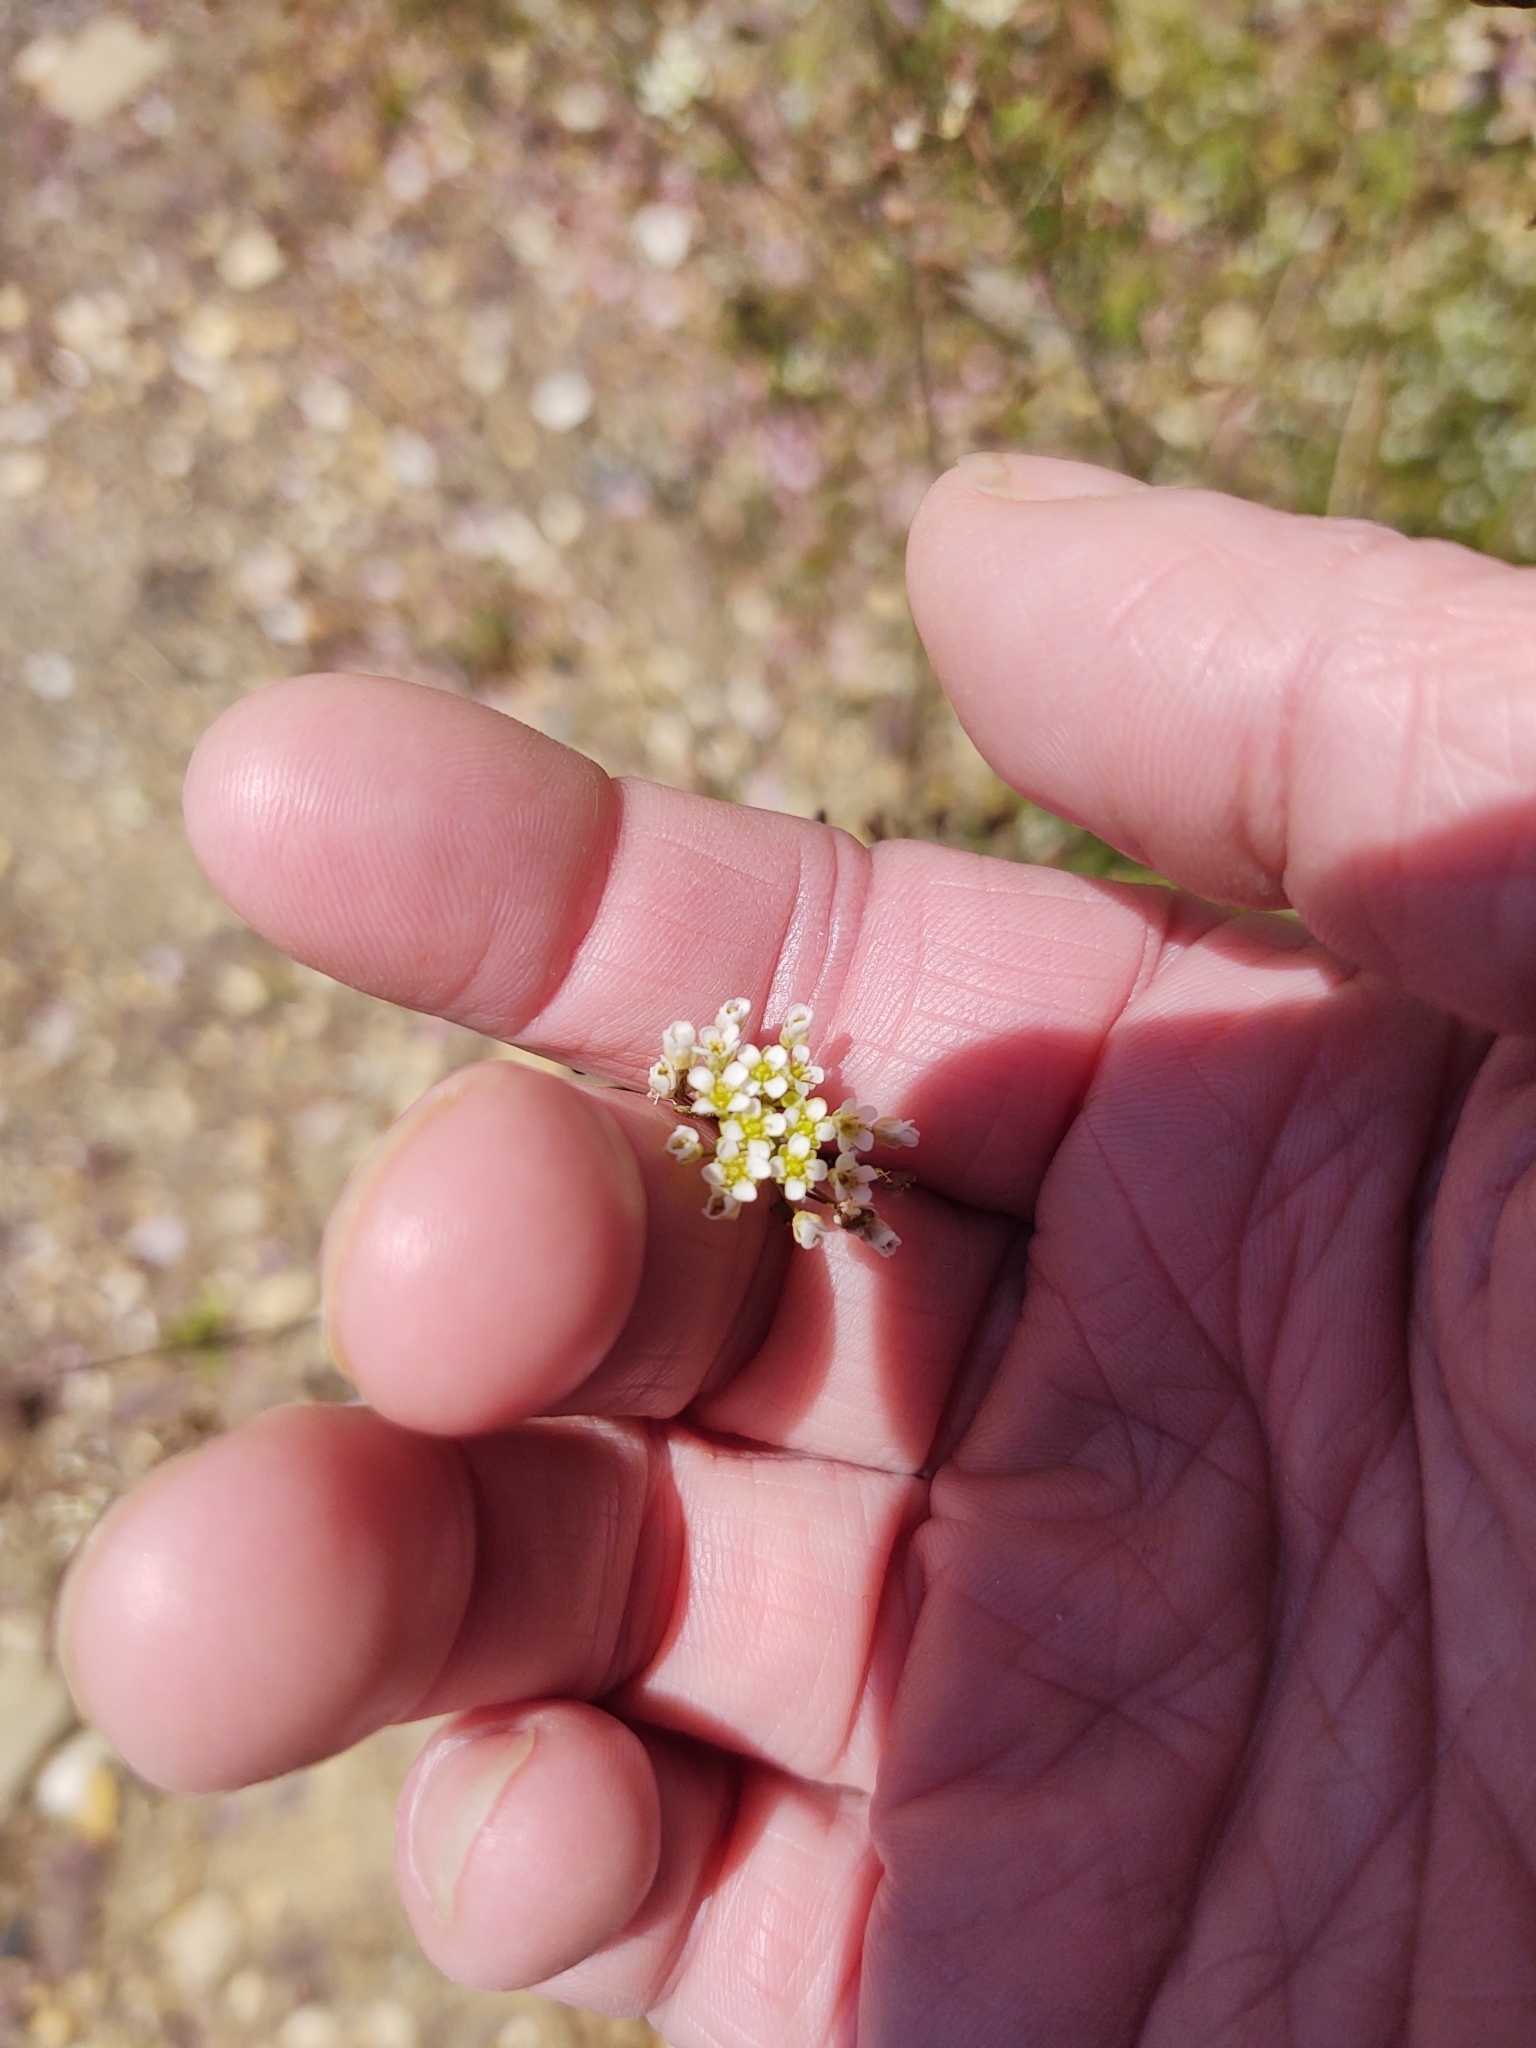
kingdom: Plantae
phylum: Tracheophyta
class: Magnoliopsida
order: Brassicales
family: Brassicaceae
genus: Capsella
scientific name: Capsella bursa-pastoris
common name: Shepherd's purse
